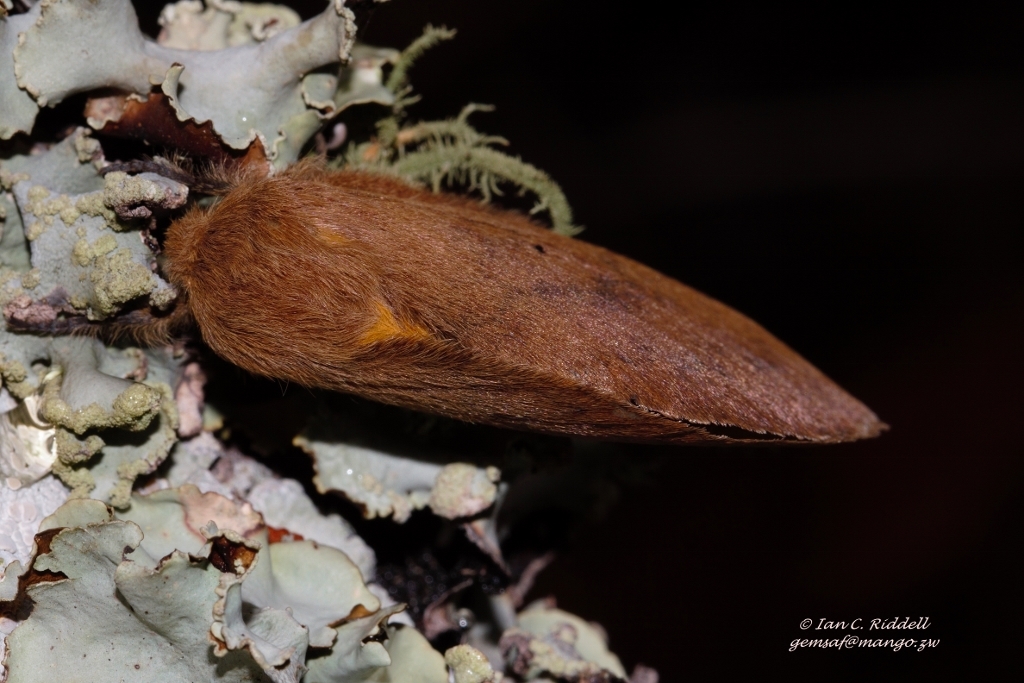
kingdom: Animalia
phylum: Arthropoda
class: Insecta
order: Lepidoptera
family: Lasiocampidae
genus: Pachymeta
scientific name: Pachymeta semifasciata
